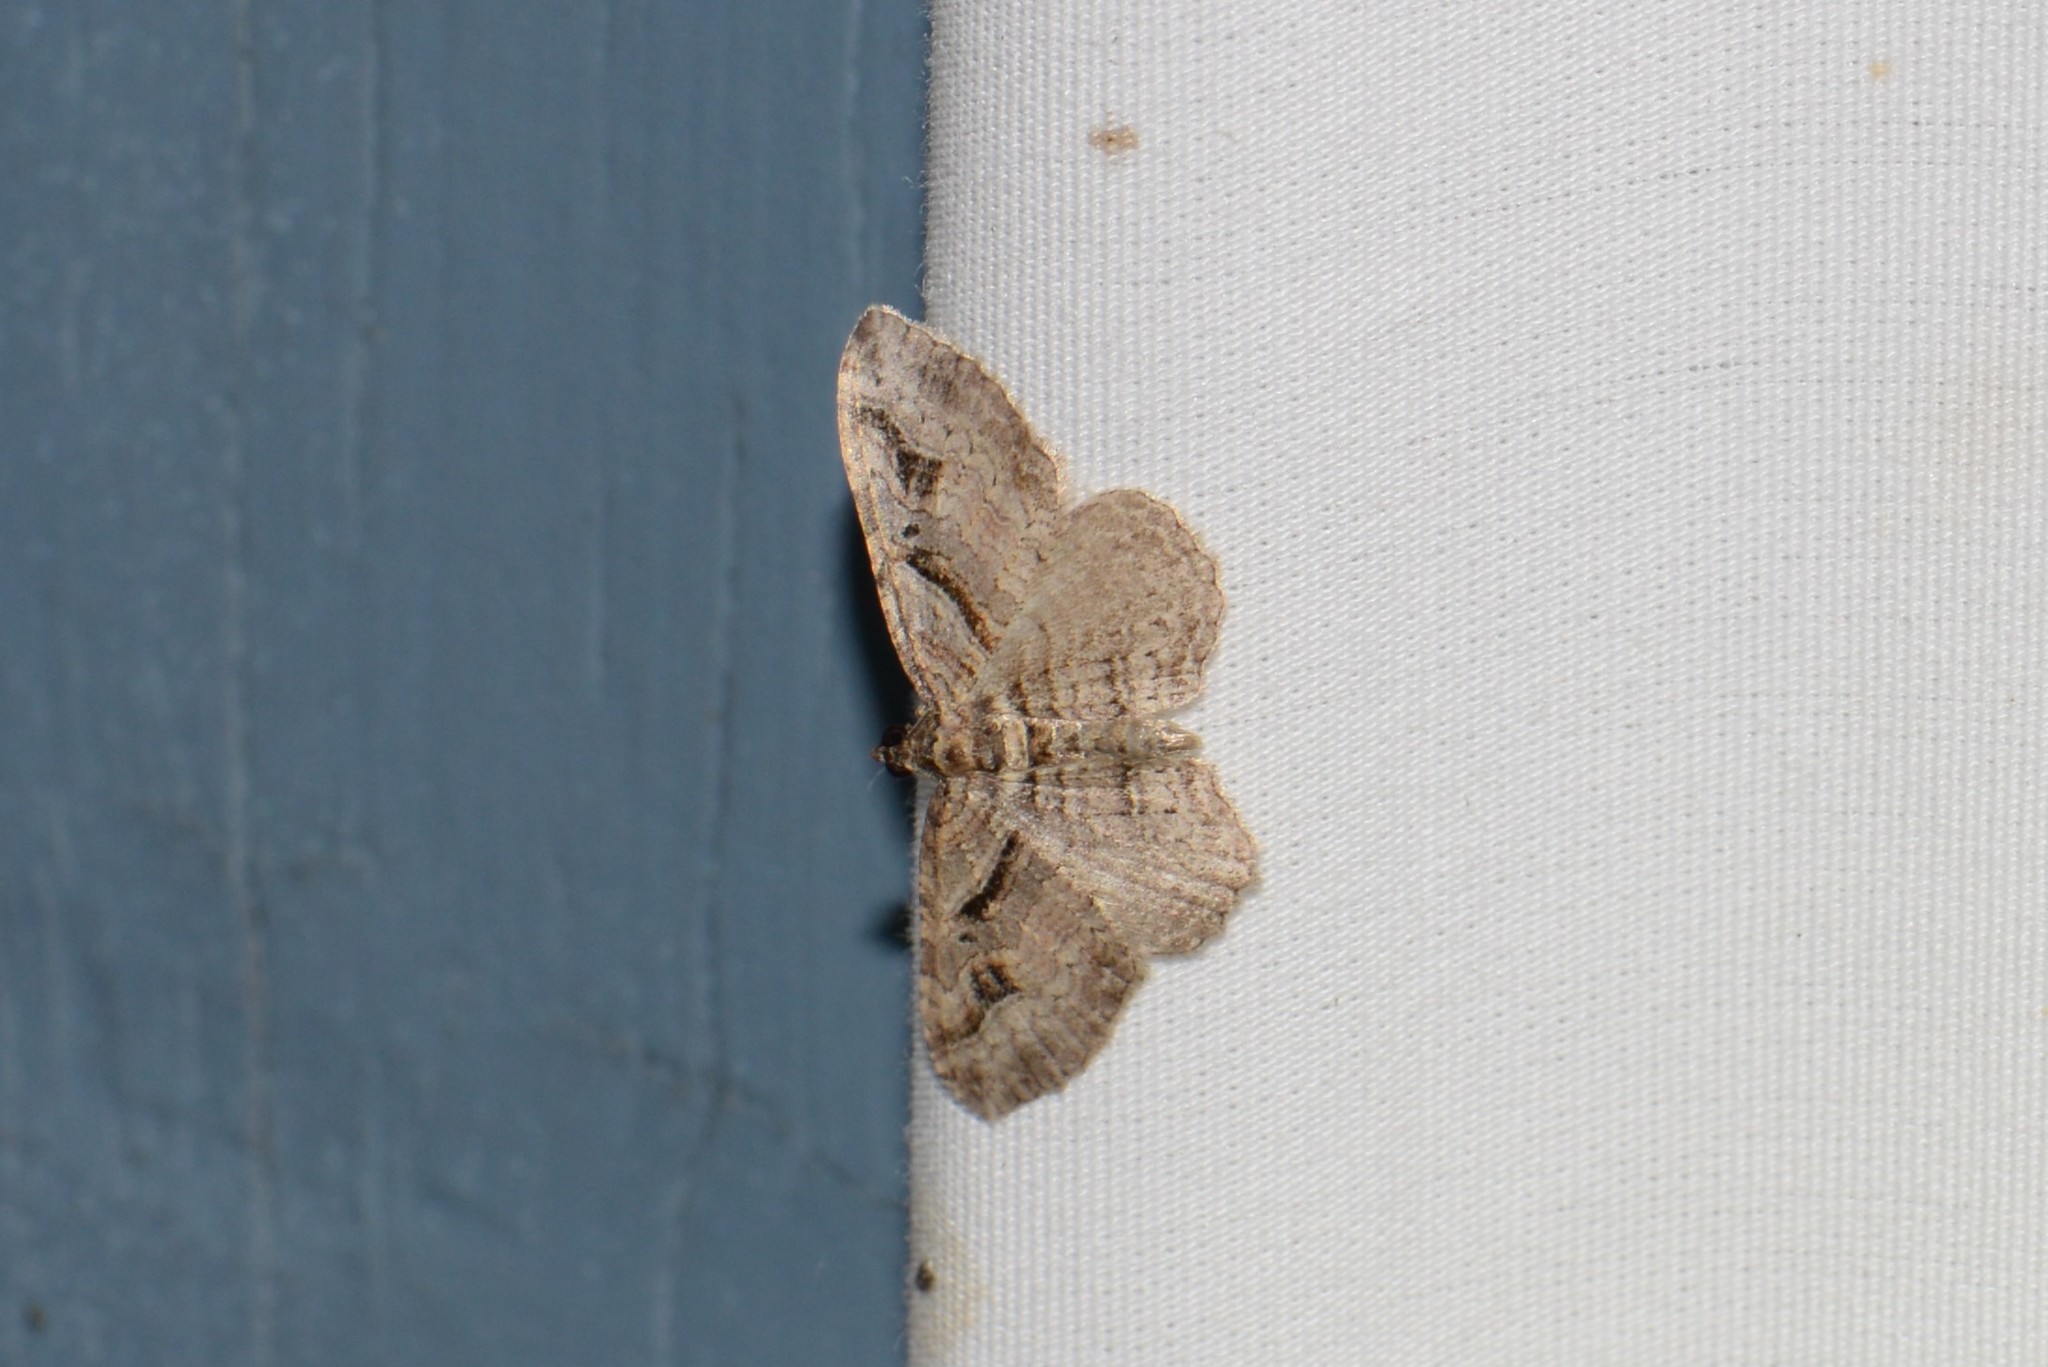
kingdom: Animalia
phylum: Arthropoda
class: Insecta
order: Lepidoptera
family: Geometridae
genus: Costaconvexa
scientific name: Costaconvexa centrostrigaria
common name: Bent-line carpet
